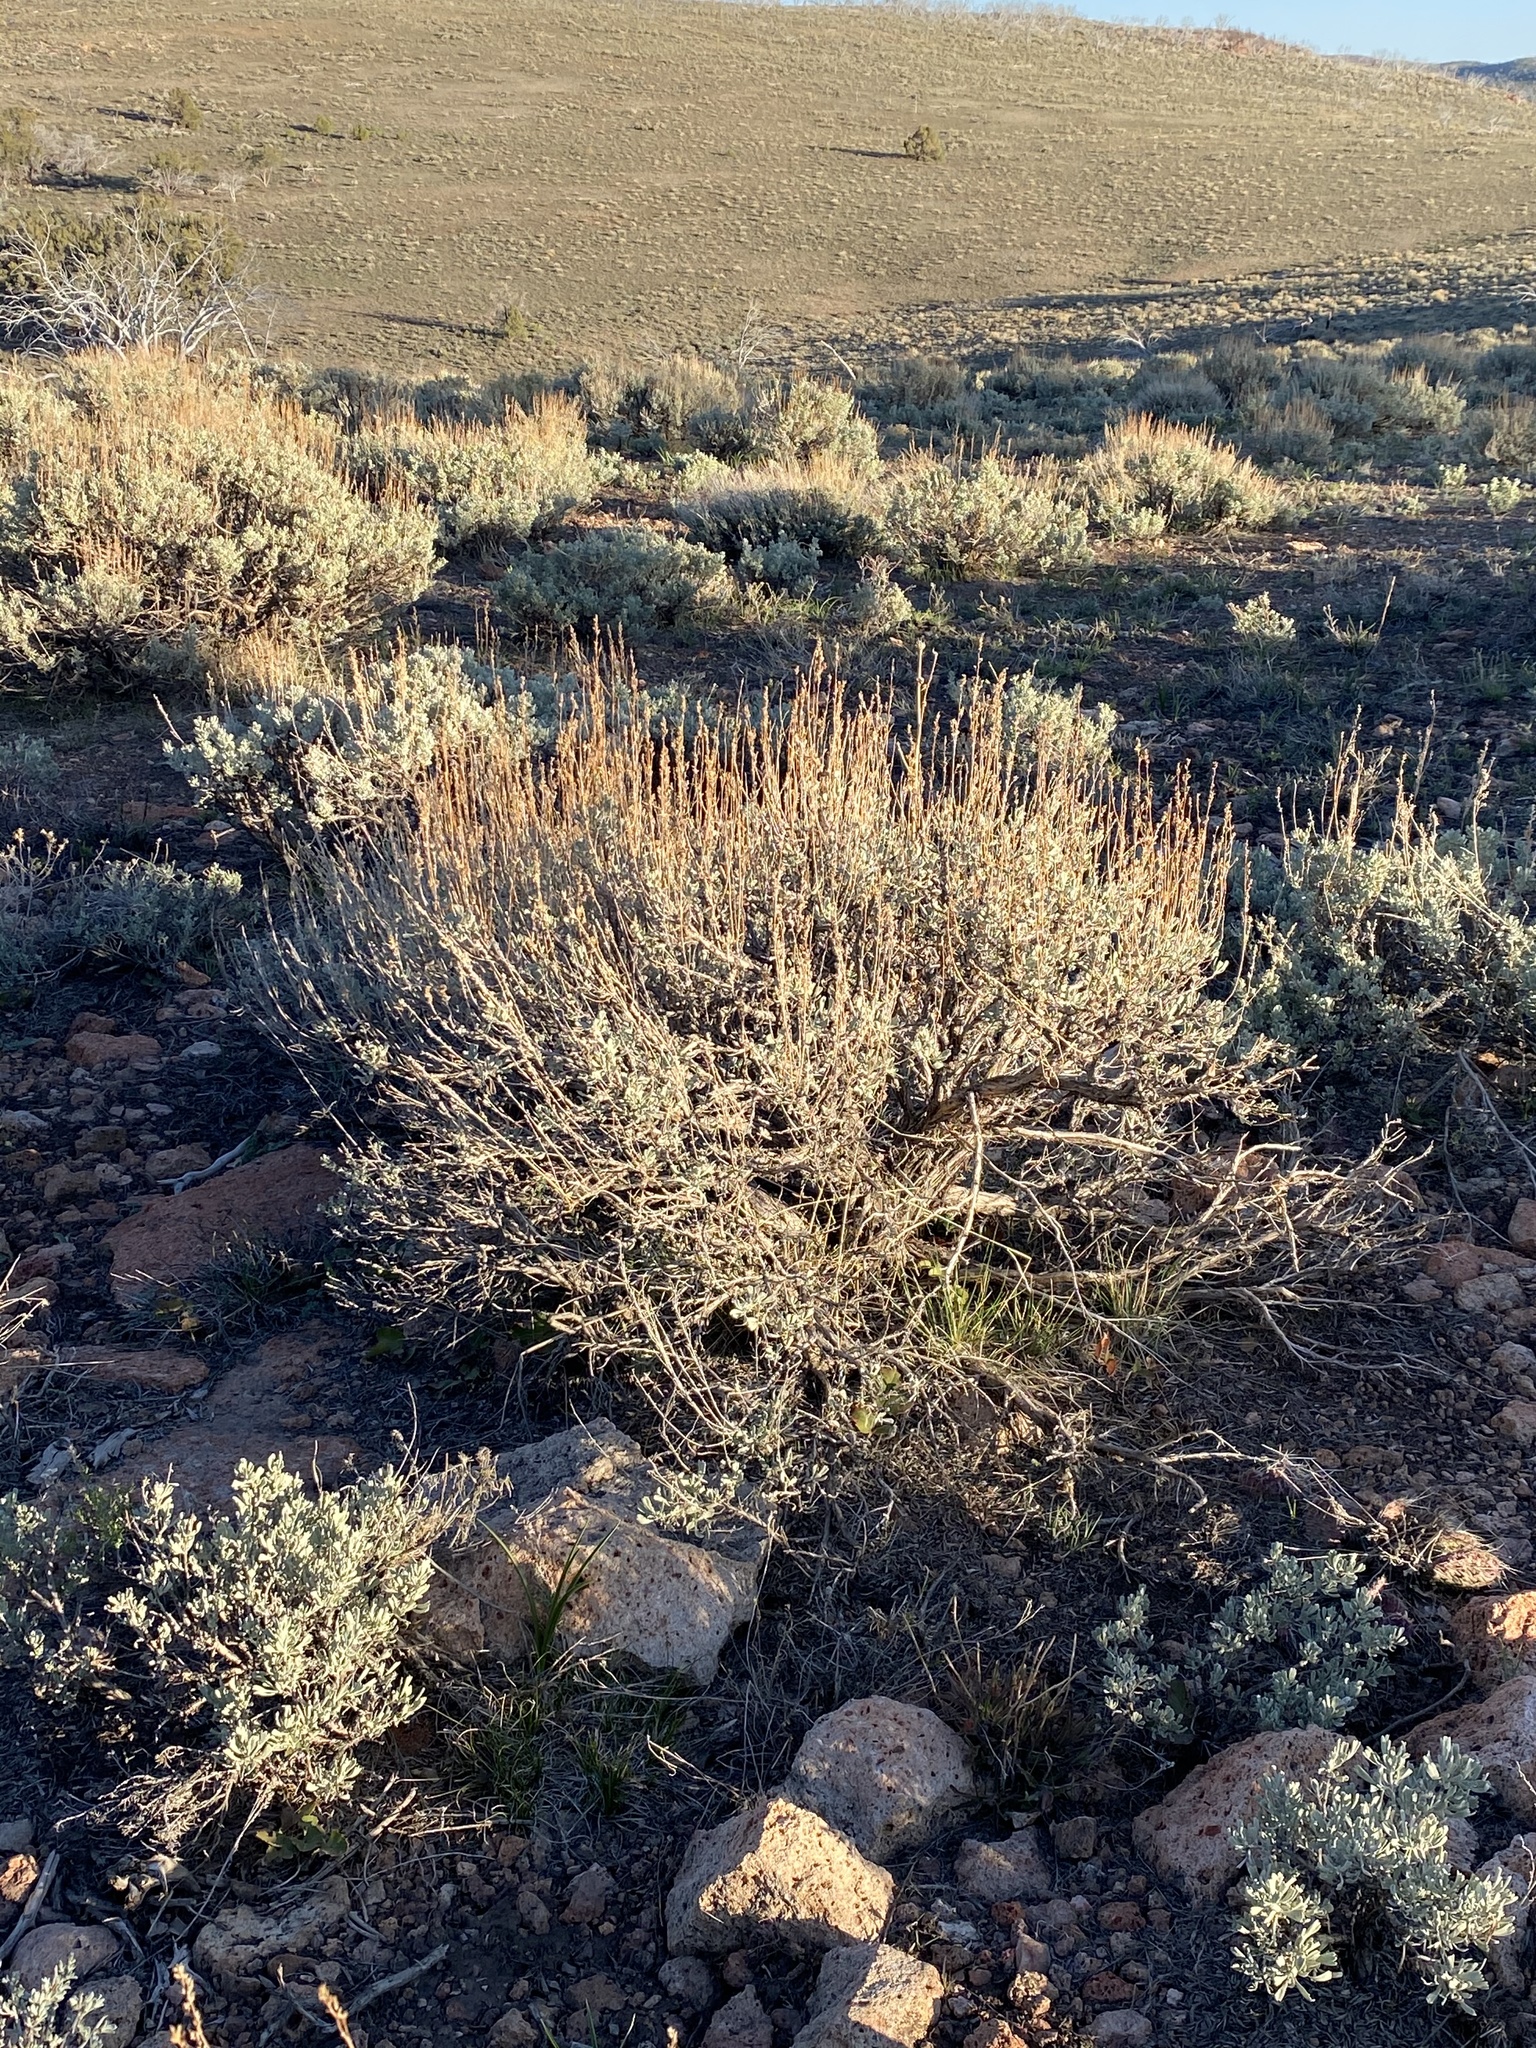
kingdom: Plantae
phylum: Tracheophyta
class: Magnoliopsida
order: Asterales
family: Asteraceae
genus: Artemisia
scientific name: Artemisia tridentata
